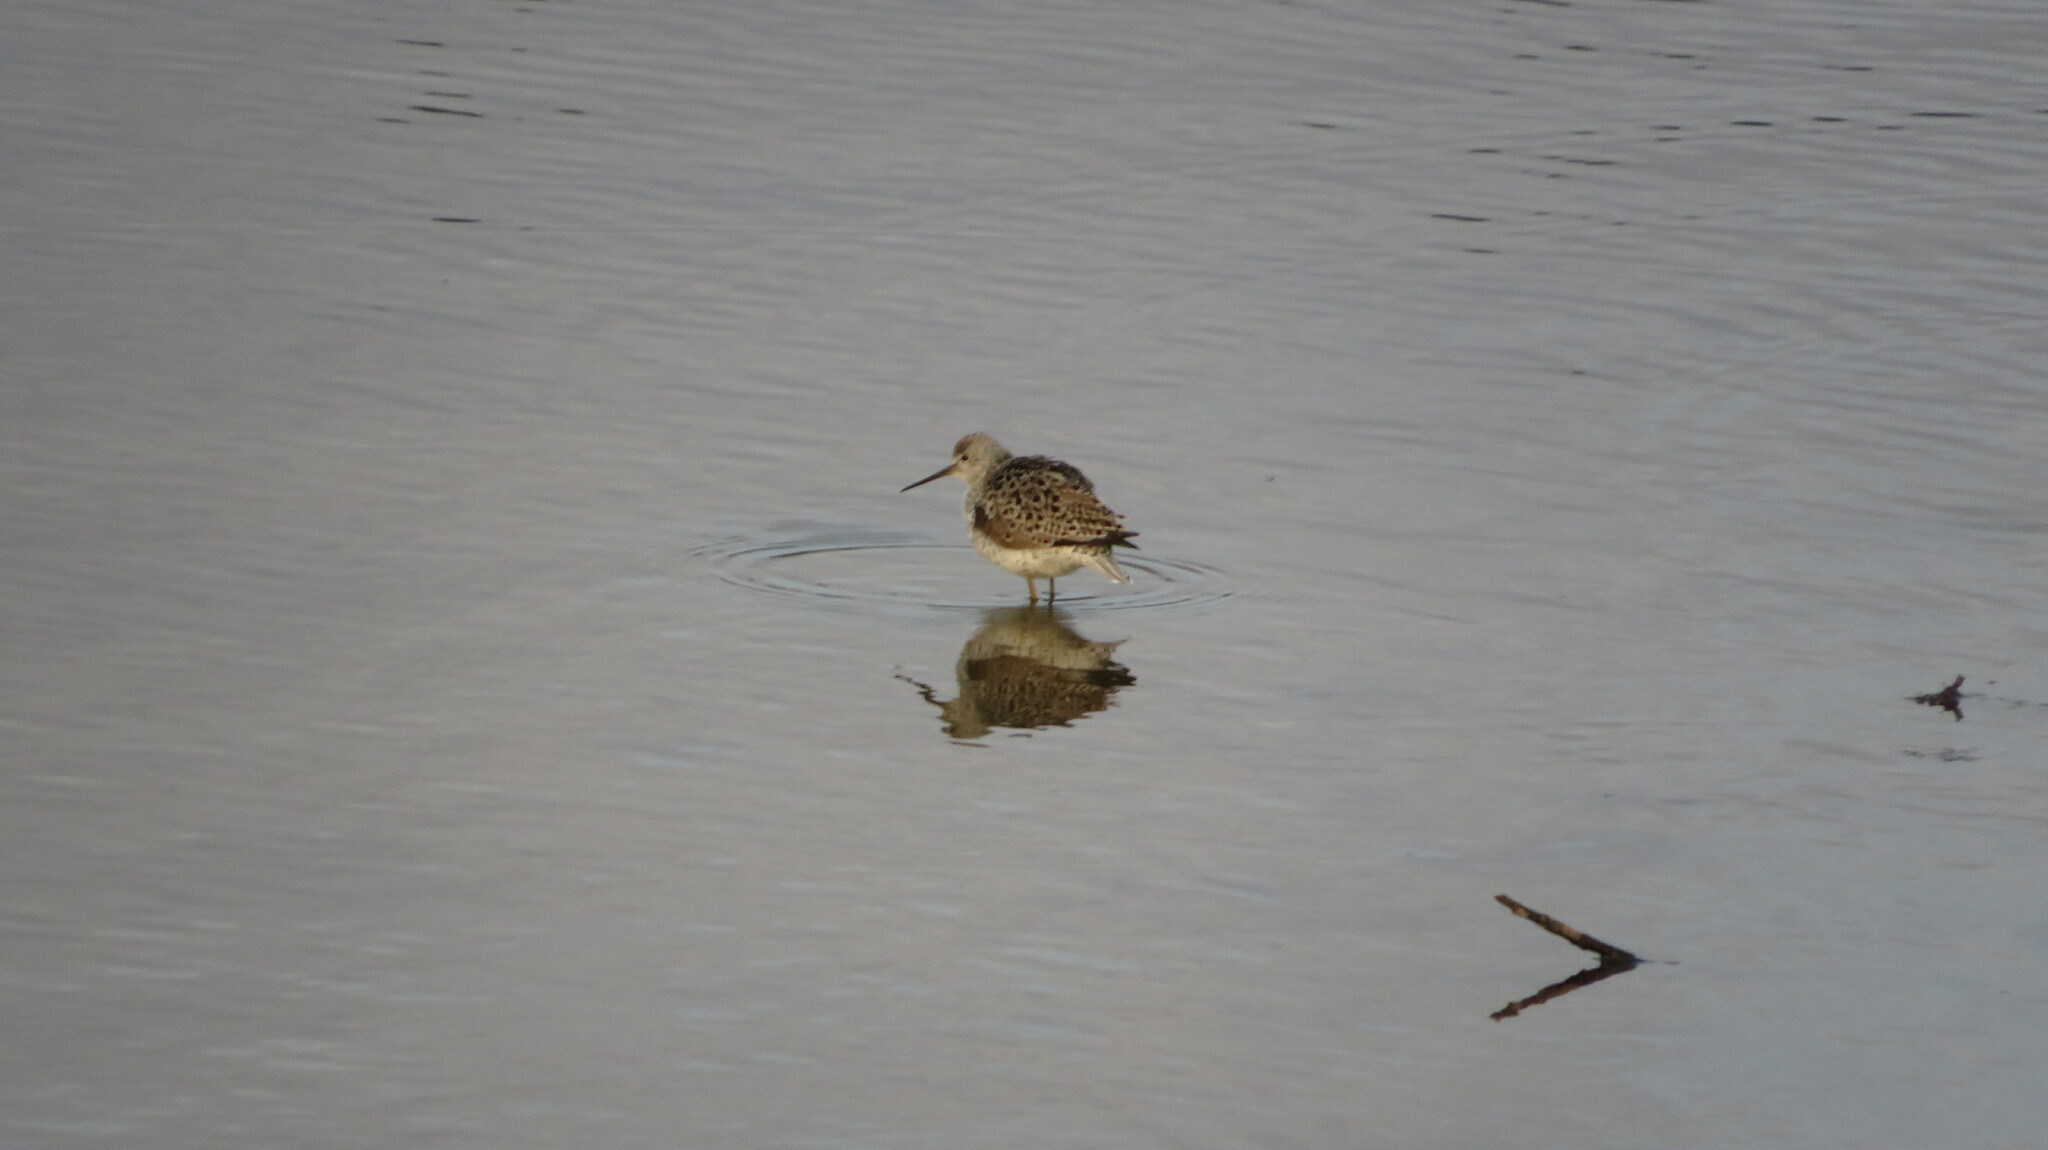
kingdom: Animalia
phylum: Chordata
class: Aves
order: Charadriiformes
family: Scolopacidae
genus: Tringa
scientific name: Tringa stagnatilis
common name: Marsh sandpiper
